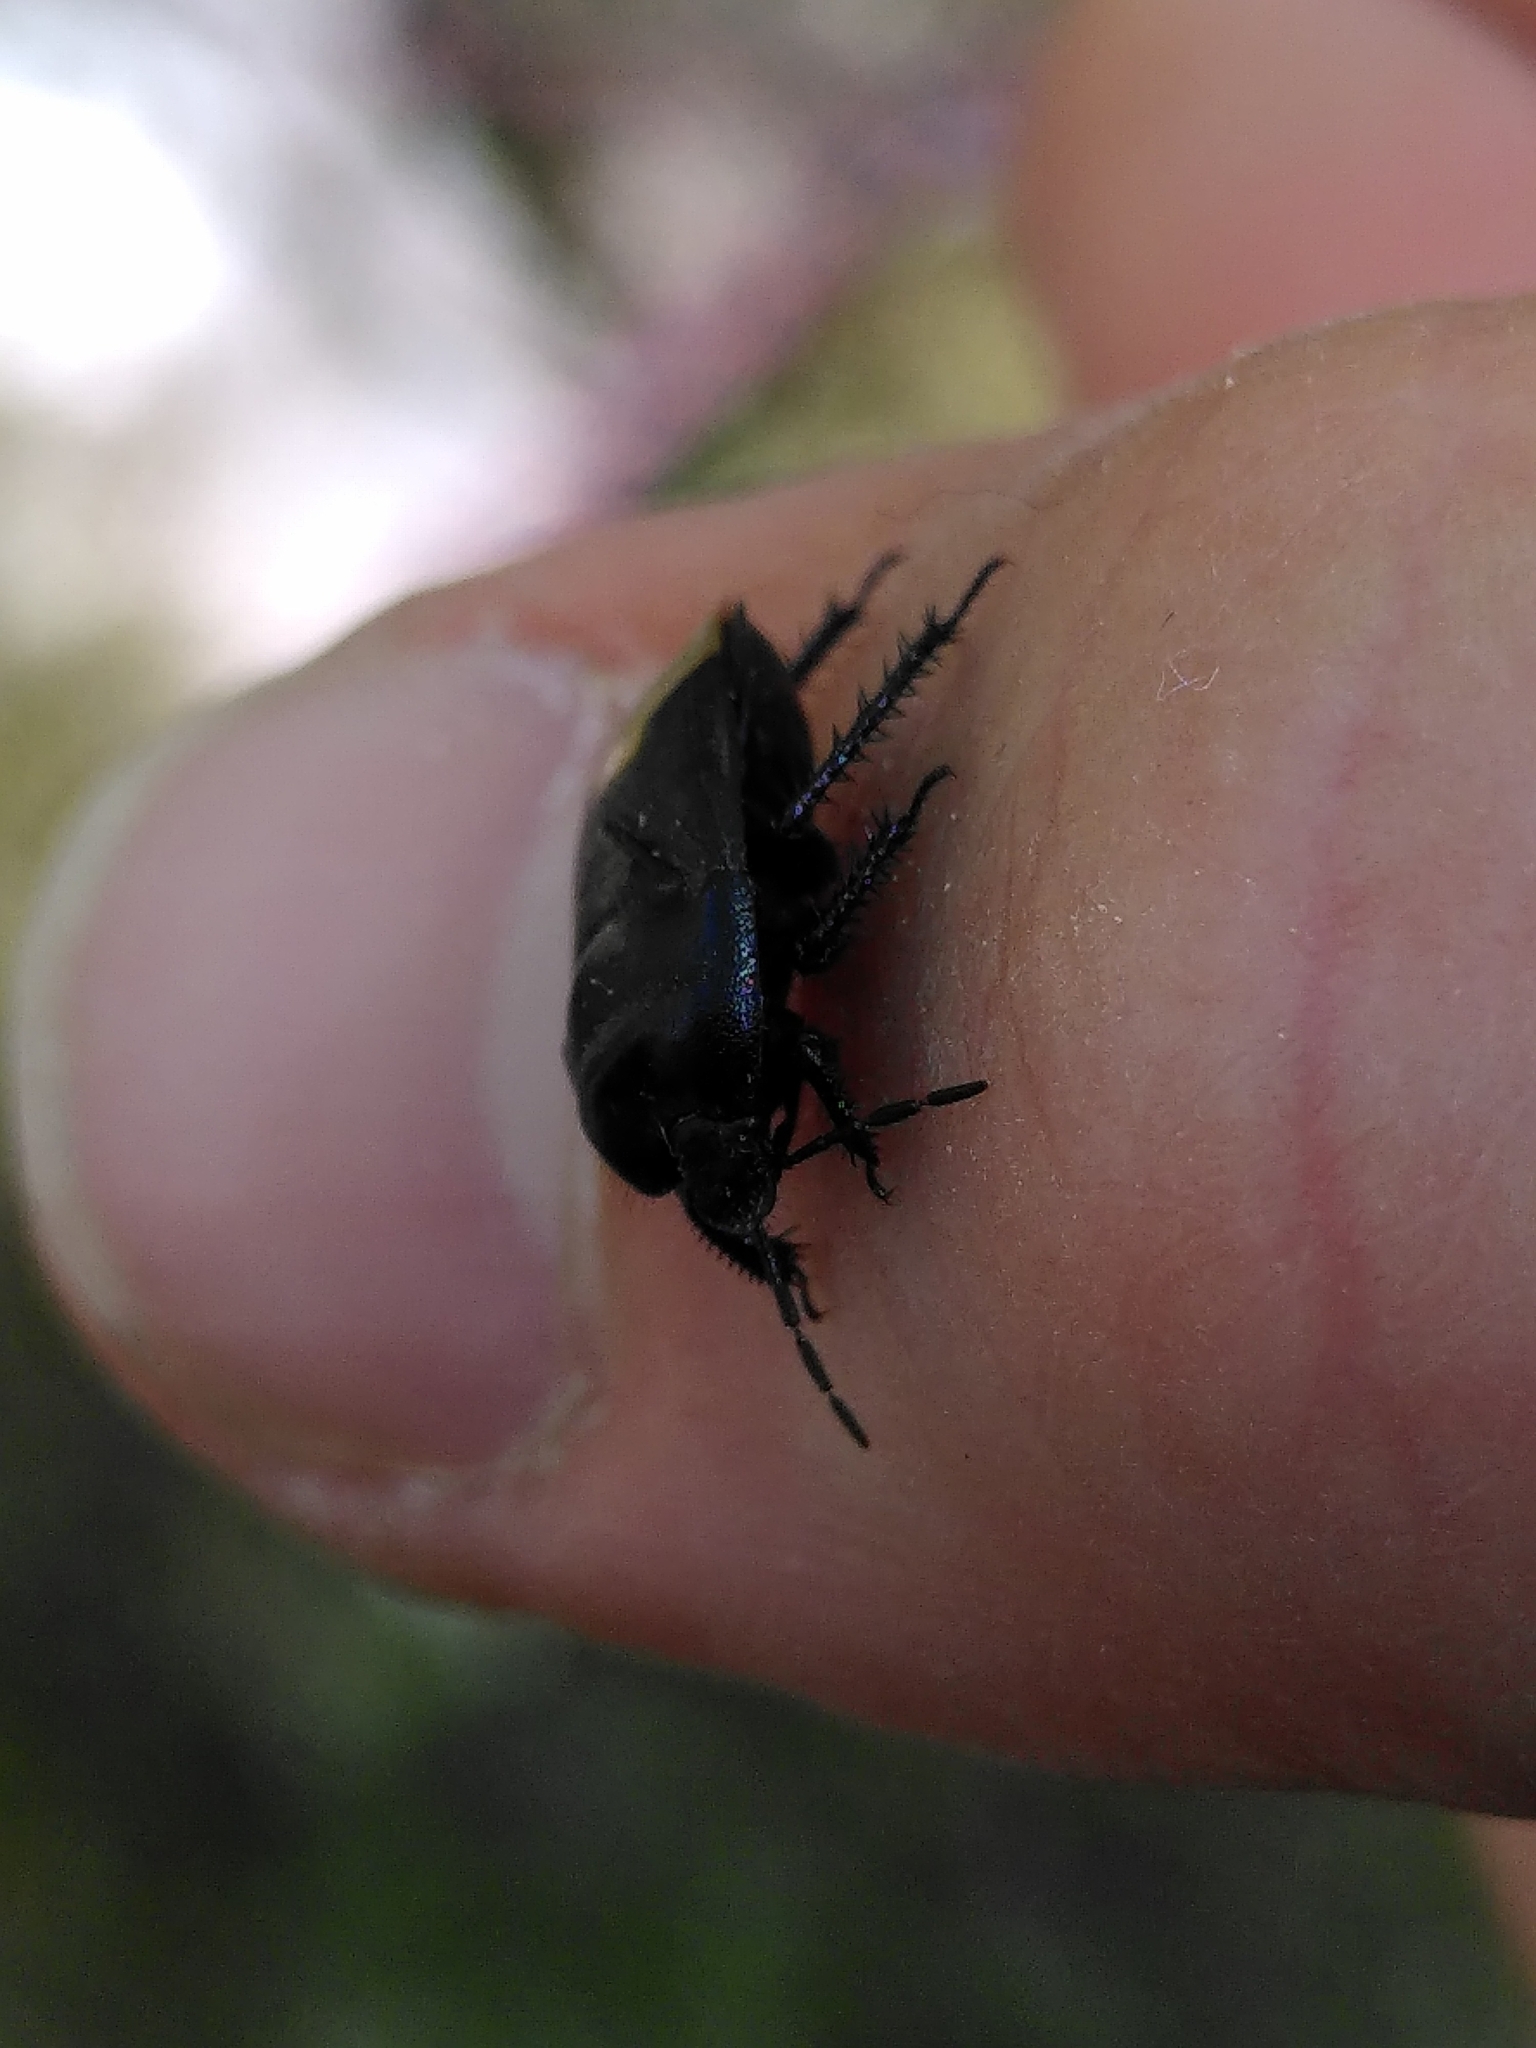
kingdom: Animalia
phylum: Arthropoda
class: Insecta
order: Hemiptera
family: Cydnidae
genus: Cydnus
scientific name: Cydnus aterrimus
